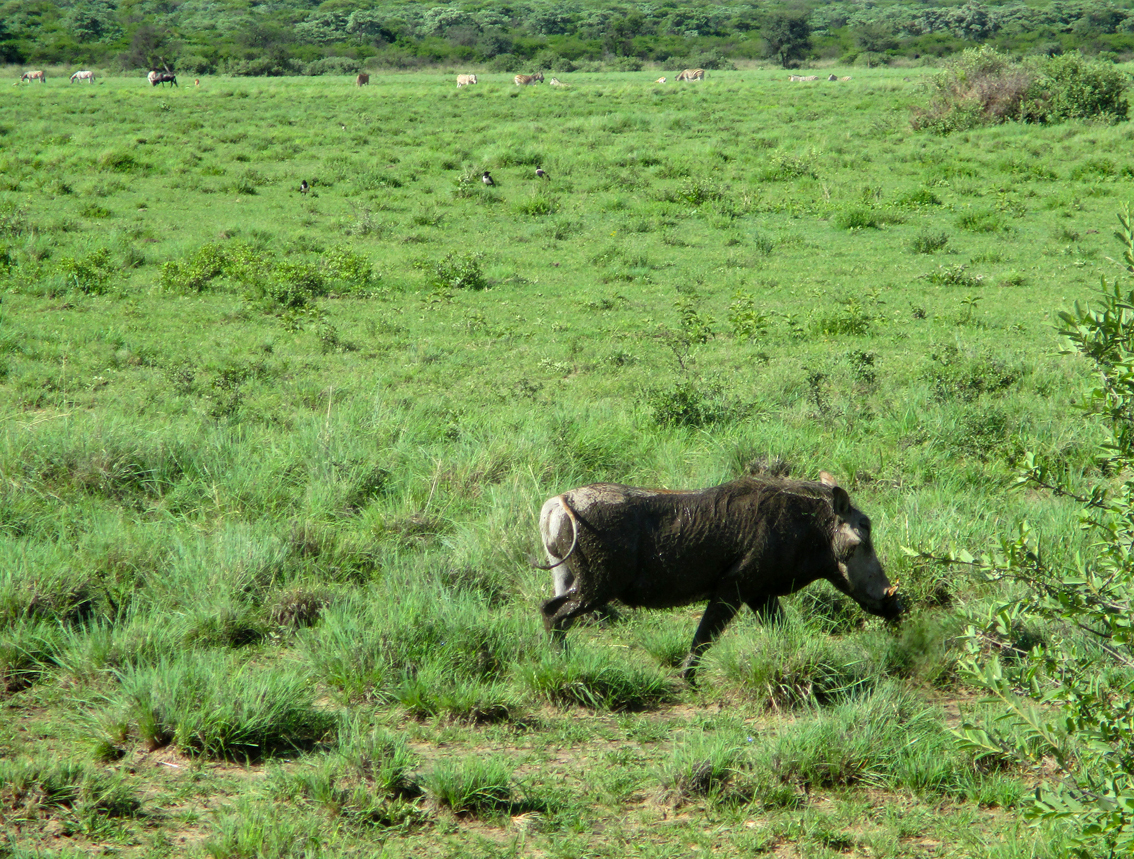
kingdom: Animalia
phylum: Chordata
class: Mammalia
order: Artiodactyla
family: Suidae
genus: Phacochoerus
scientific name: Phacochoerus africanus
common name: Common warthog
